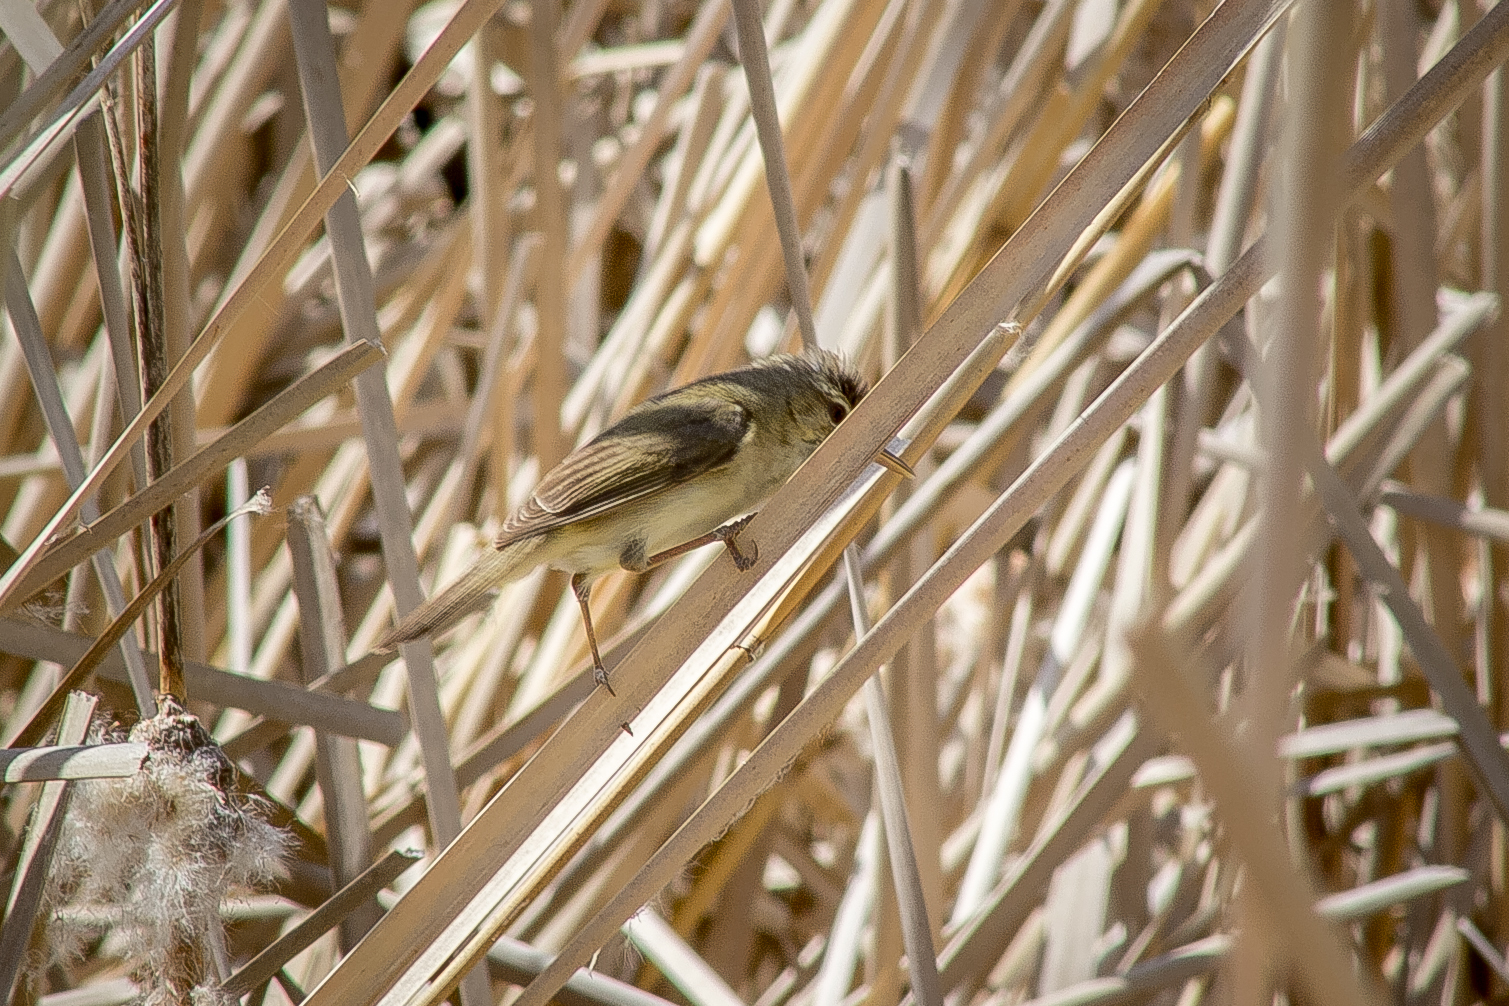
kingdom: Animalia
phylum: Chordata
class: Aves
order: Passeriformes
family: Acrocephalidae
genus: Acrocephalus
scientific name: Acrocephalus schoenobaenus
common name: Sedge warbler
